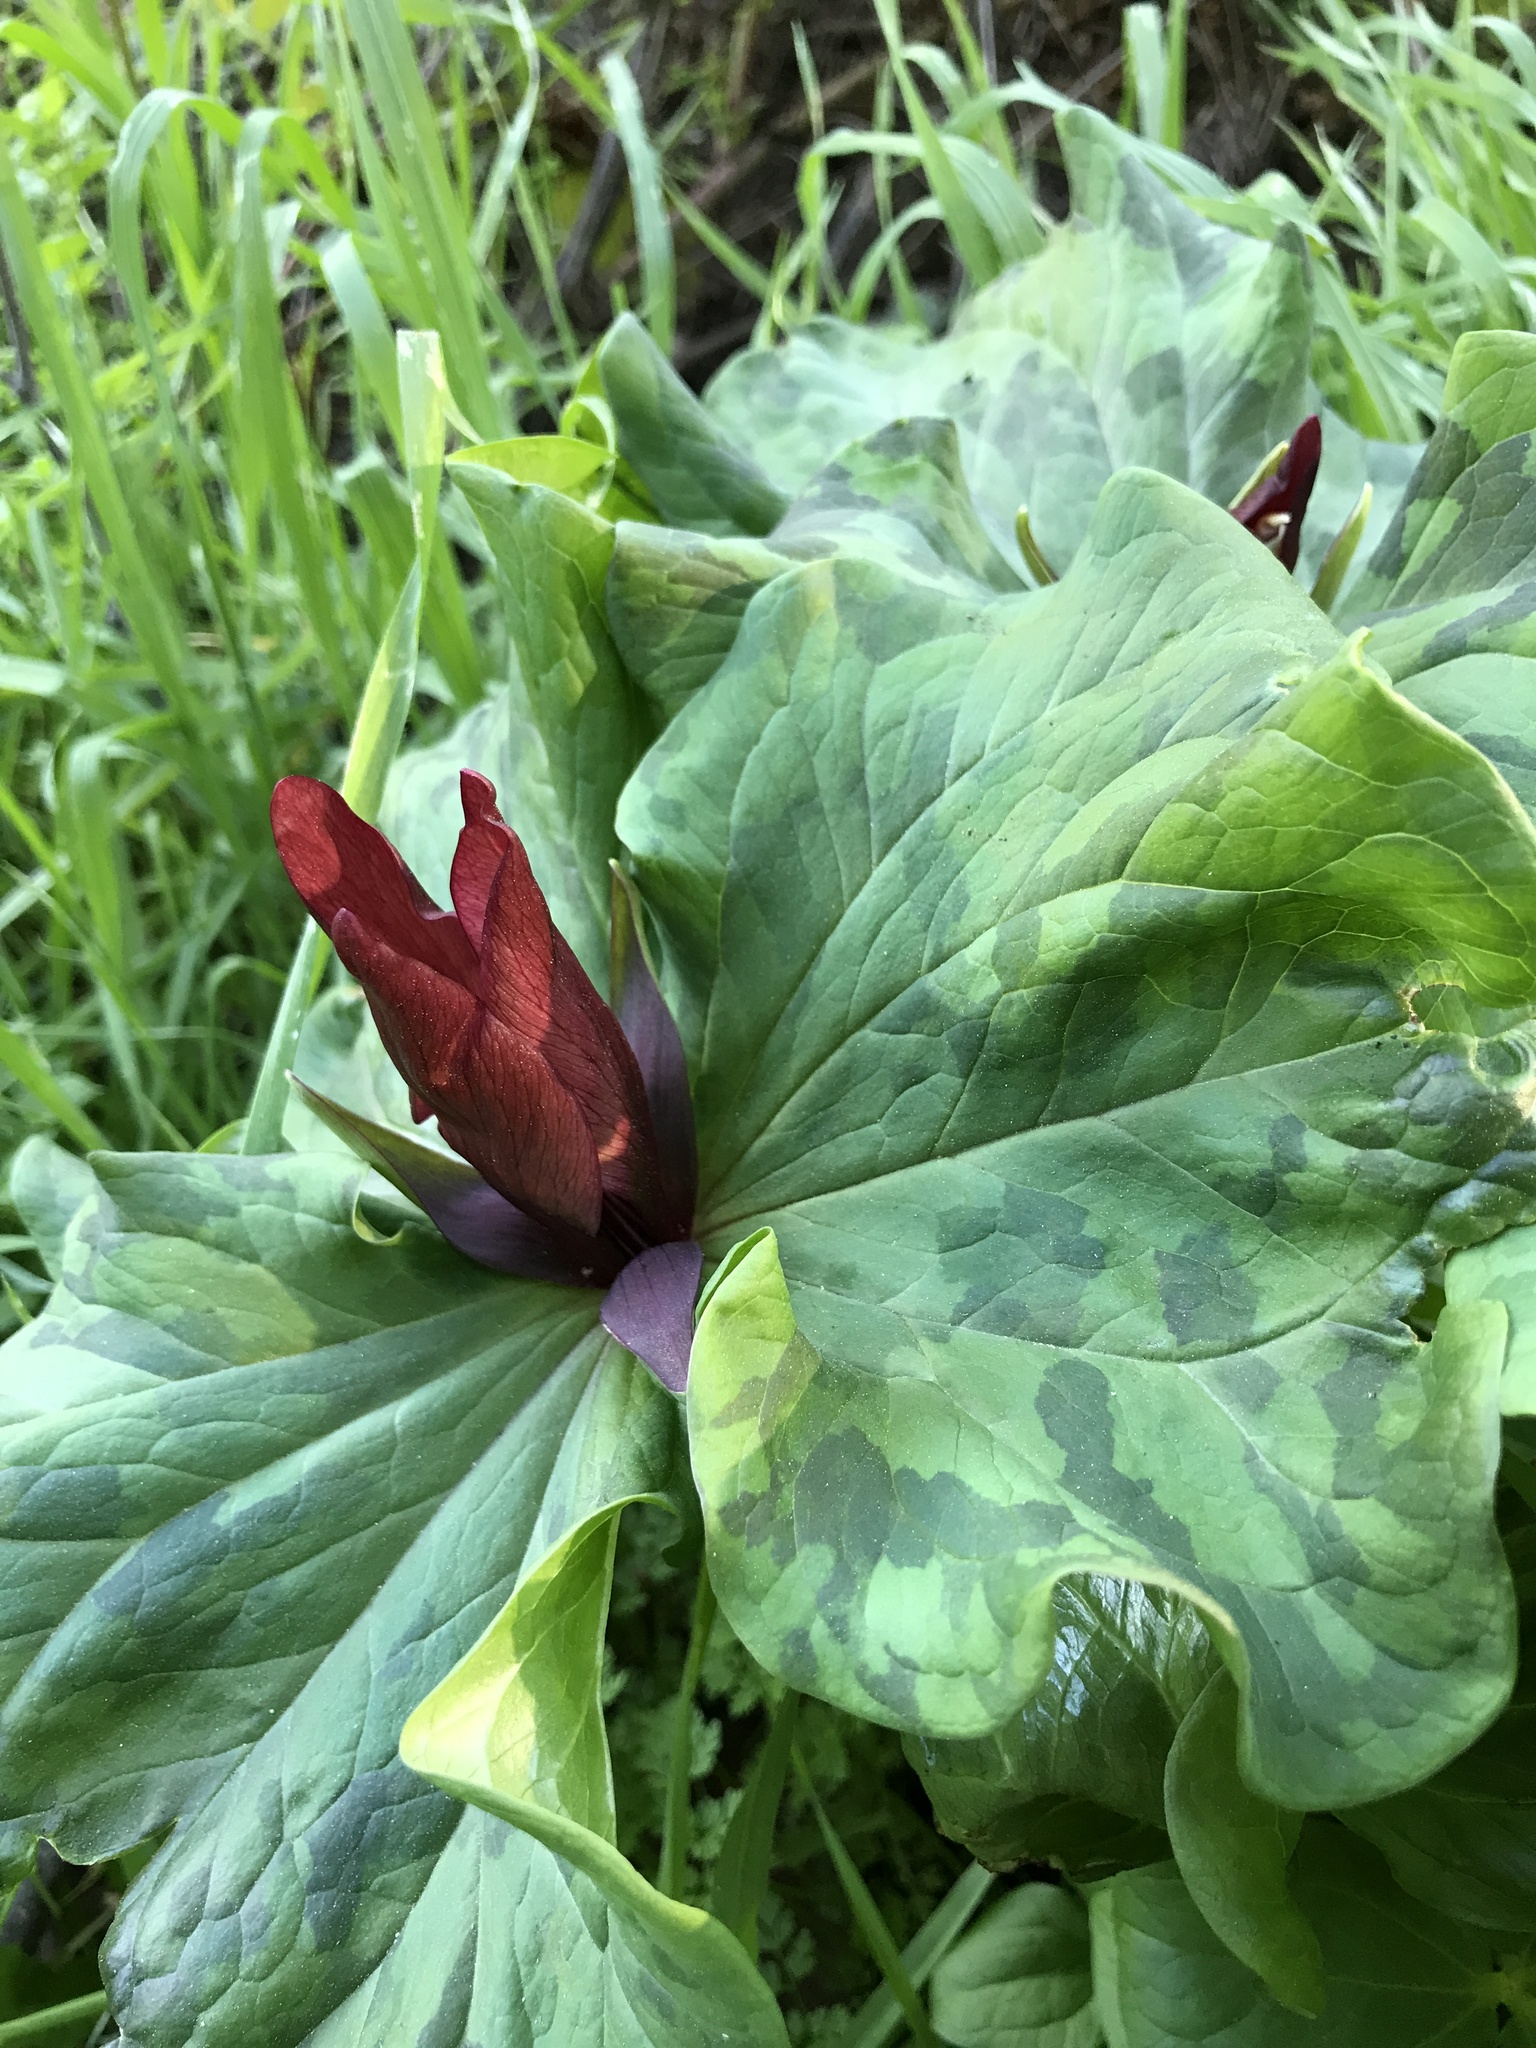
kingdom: Plantae
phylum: Tracheophyta
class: Liliopsida
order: Liliales
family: Melanthiaceae
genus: Trillium
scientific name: Trillium chloropetalum
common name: Giant trillium
